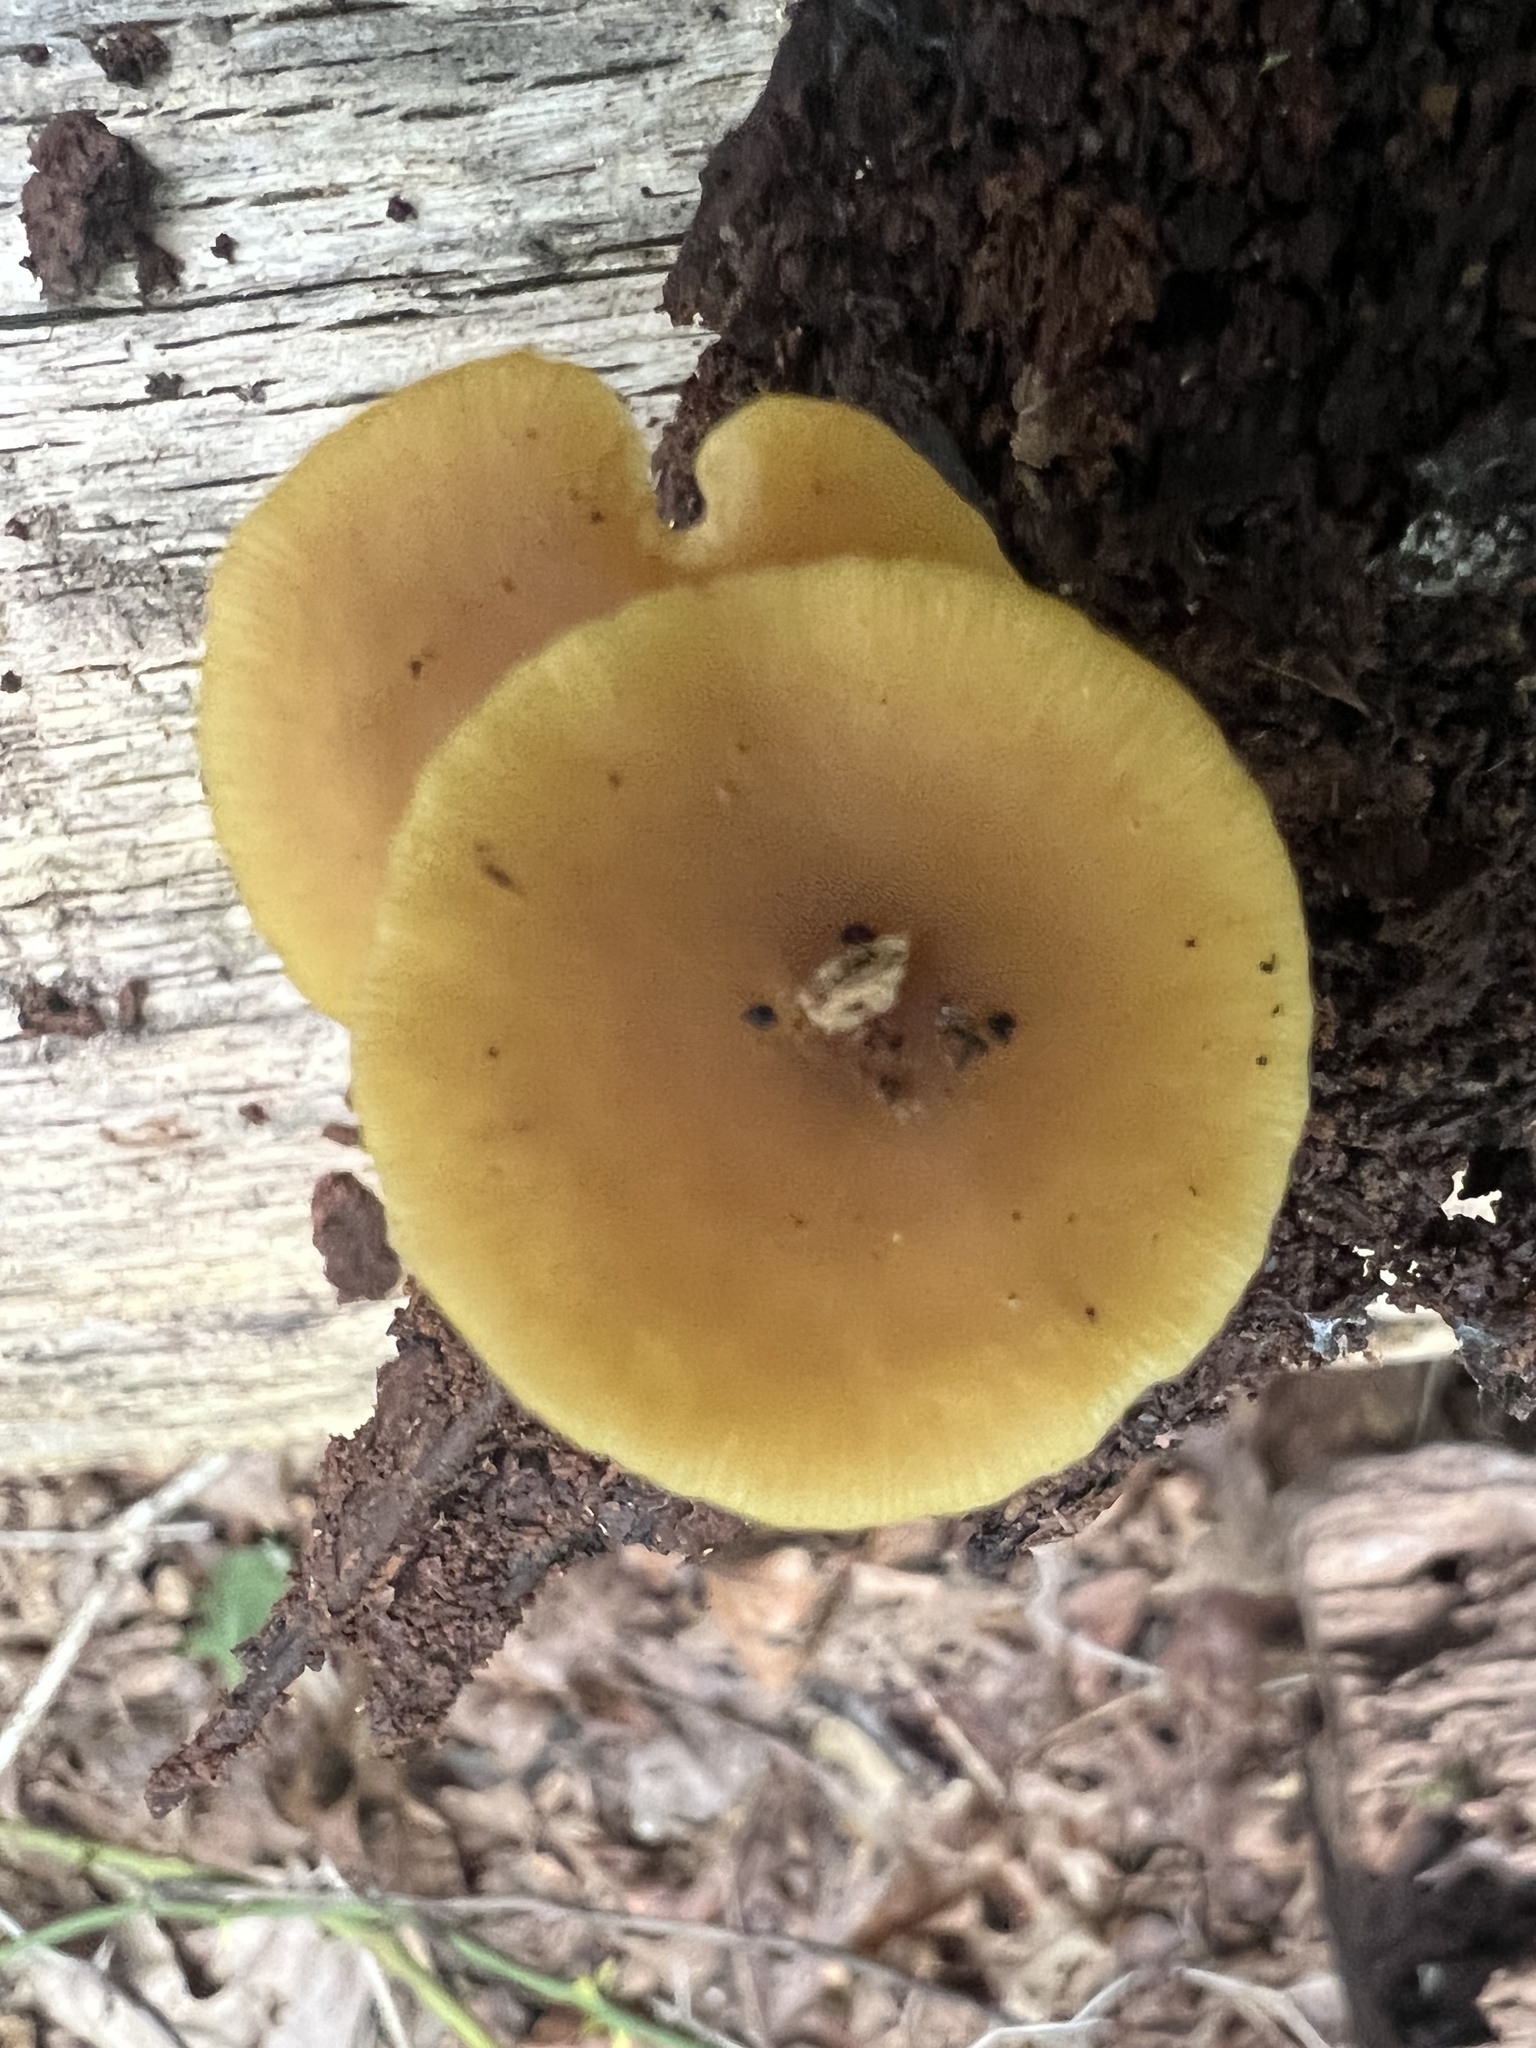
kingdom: Fungi
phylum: Basidiomycota
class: Agaricomycetes
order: Agaricales
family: Callistosporiaceae
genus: Callistosporium
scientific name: Callistosporium luteo-olivaceum
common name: Olive lute
